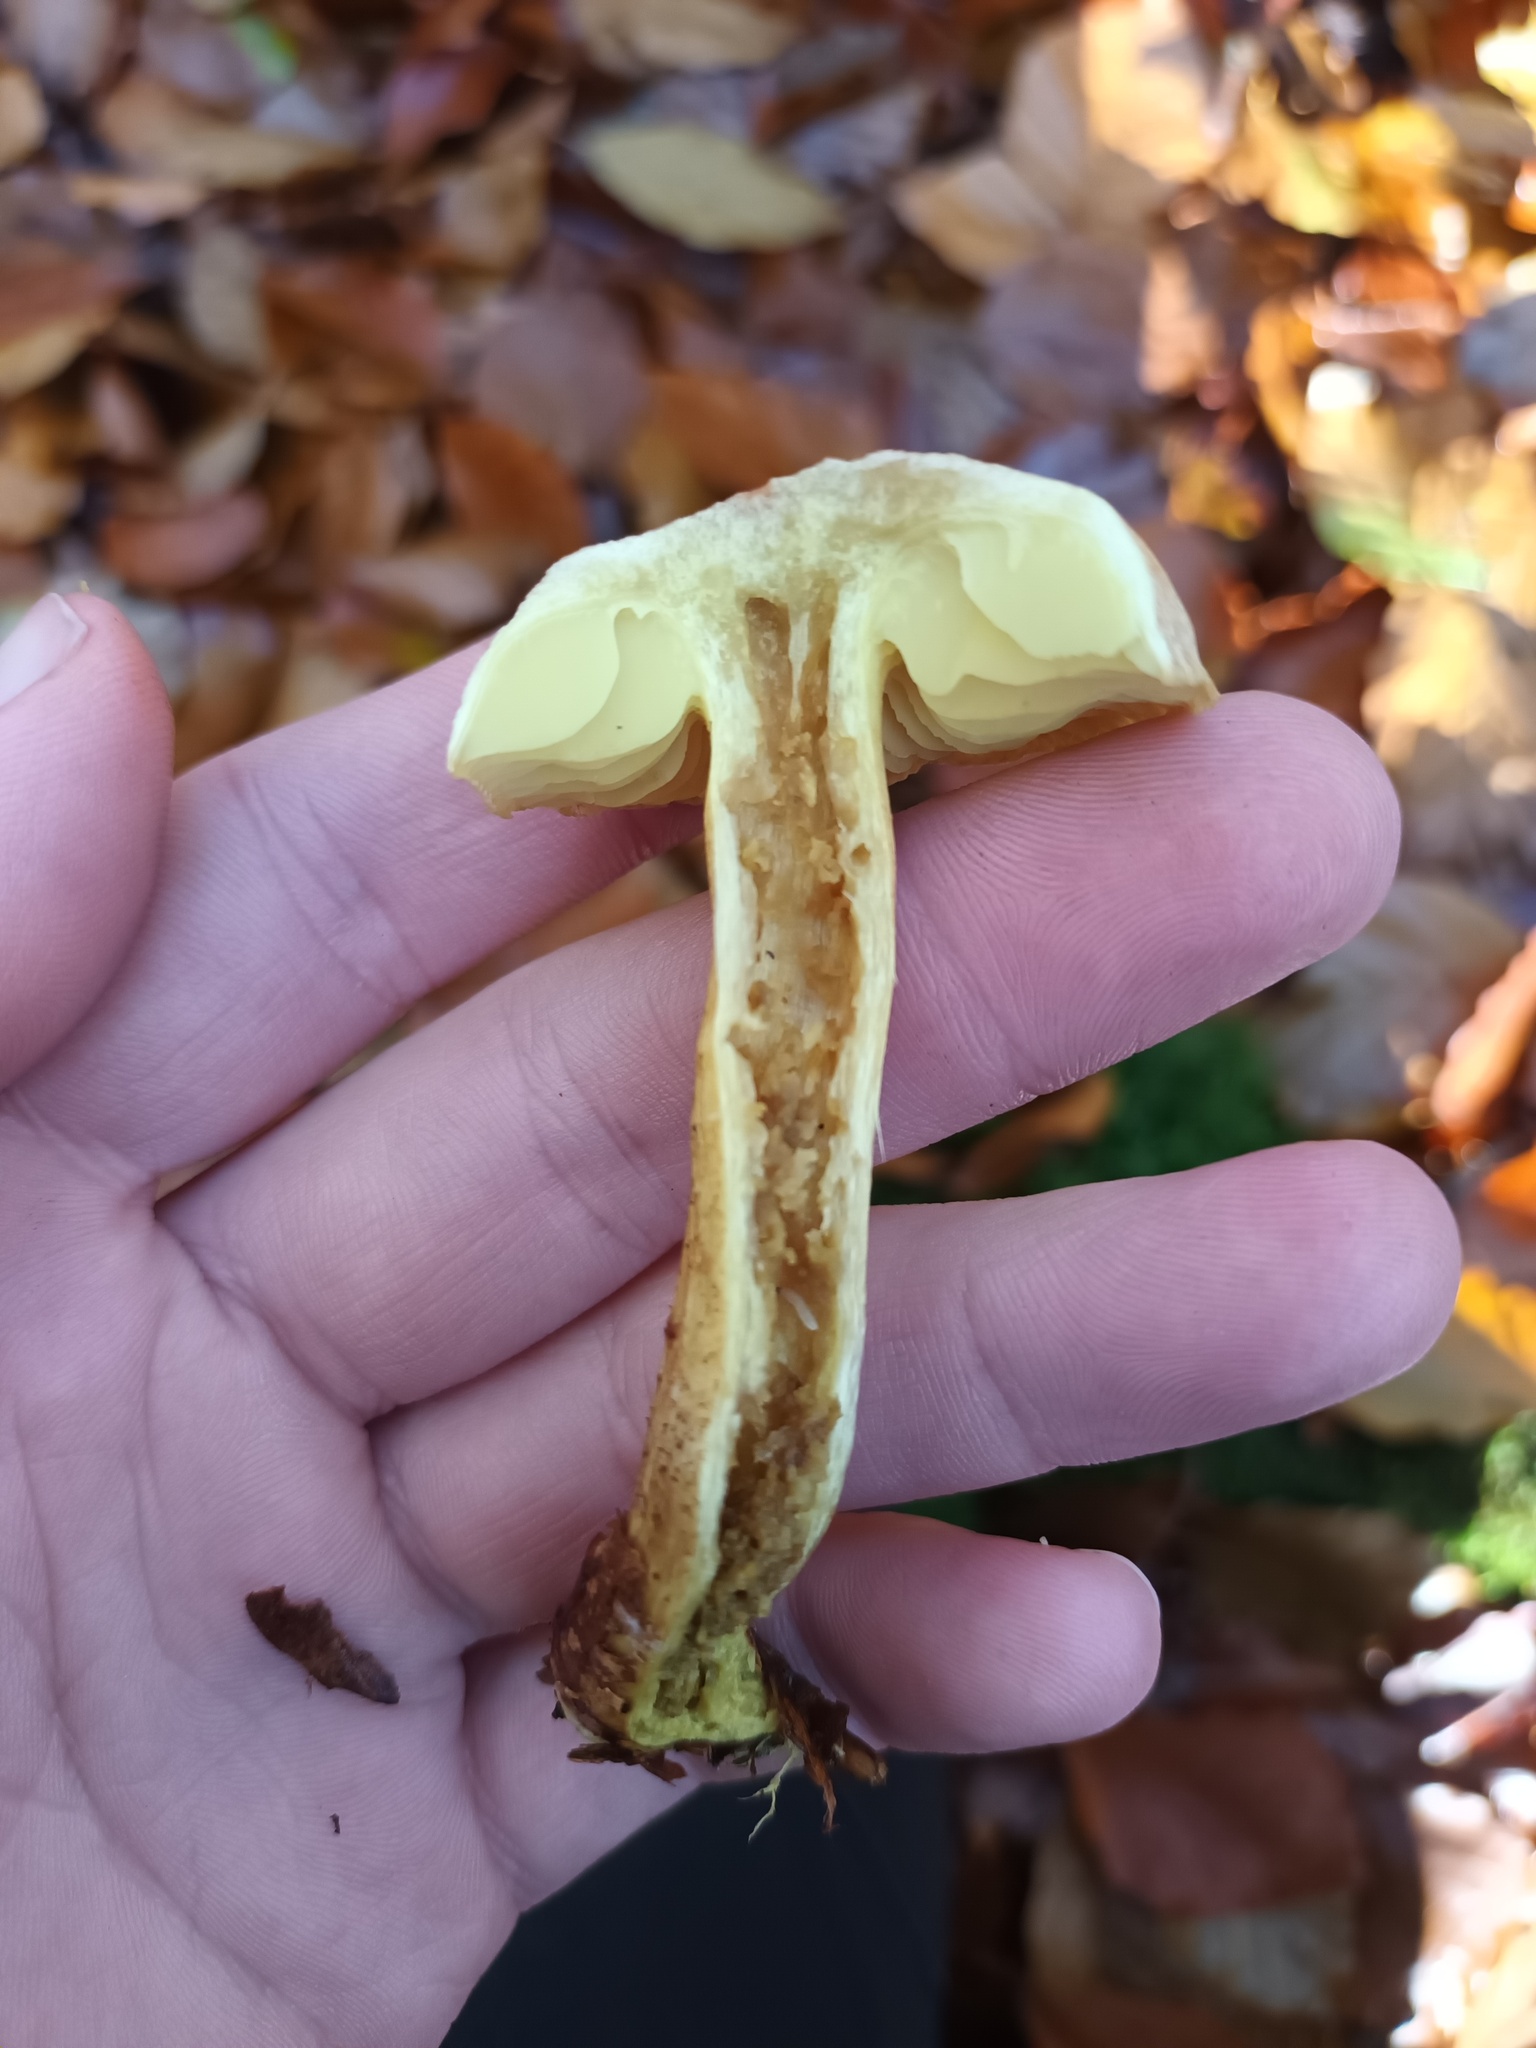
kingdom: Fungi
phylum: Basidiomycota
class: Agaricomycetes
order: Agaricales
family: Tricholomataceae
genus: Tricholoma
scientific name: Tricholoma sulphureum
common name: Stinky knight
